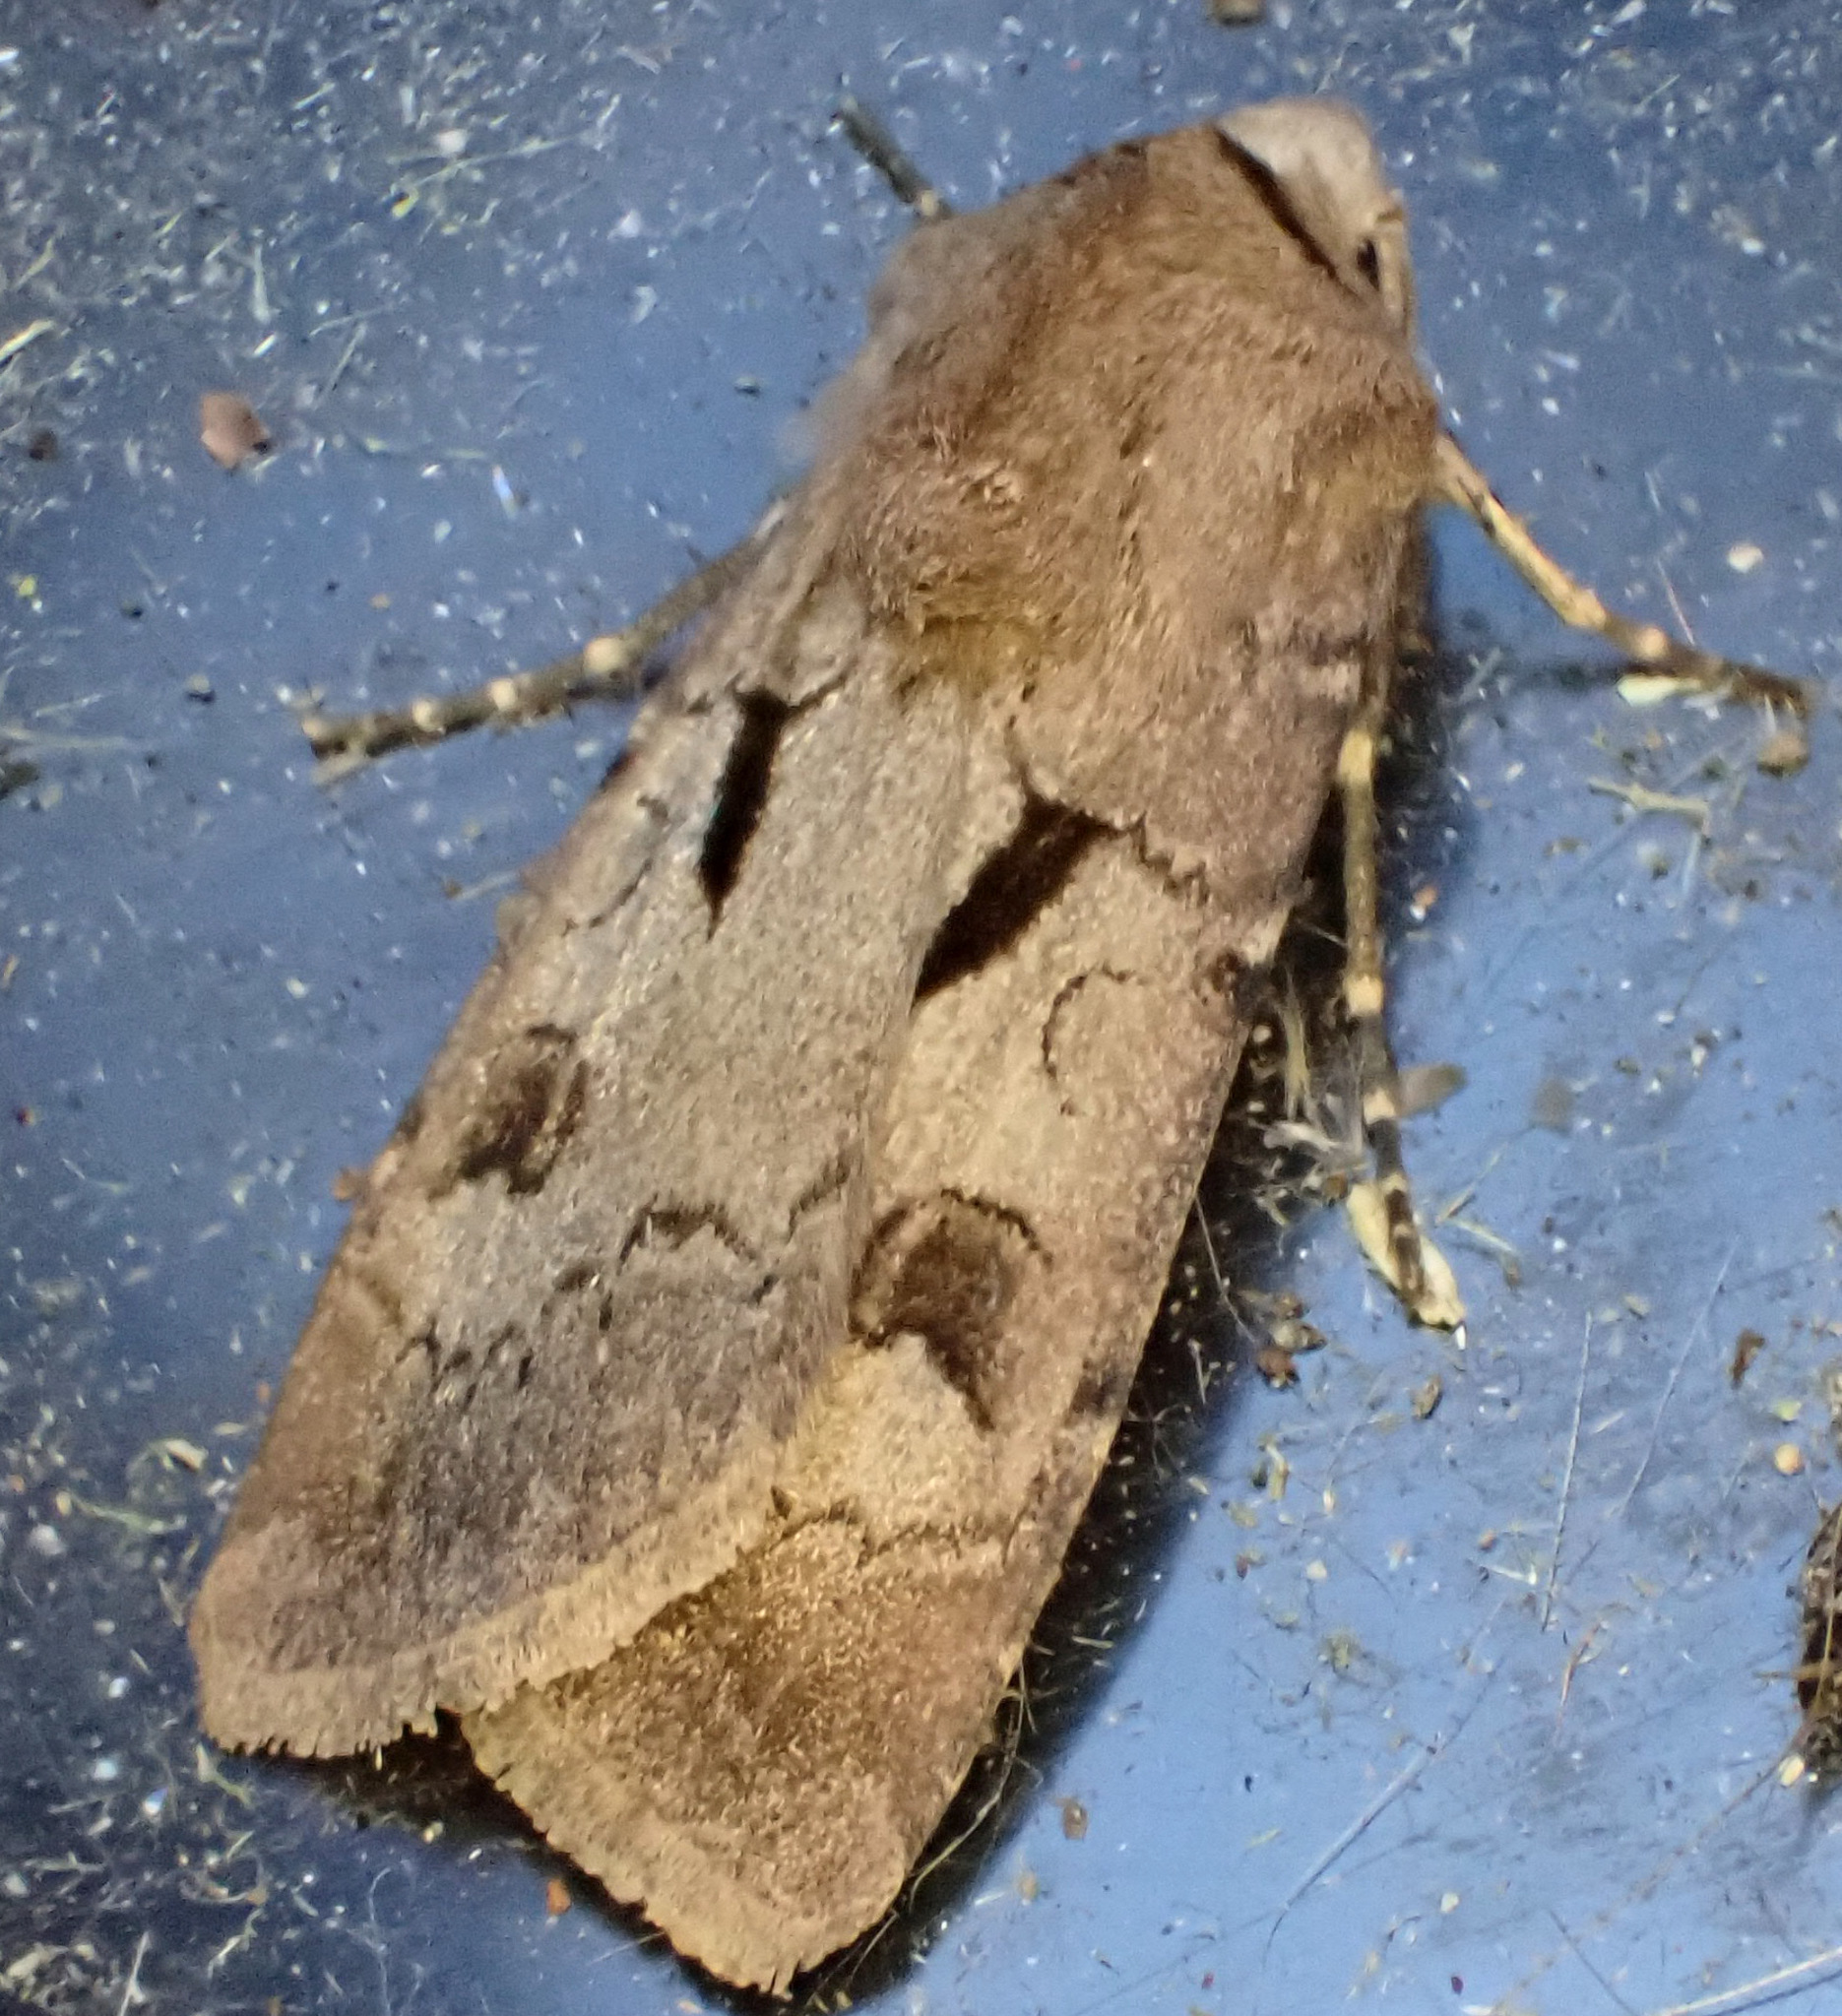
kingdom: Animalia
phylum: Arthropoda
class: Insecta
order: Lepidoptera
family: Noctuidae
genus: Agrotis
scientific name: Agrotis exclamationis
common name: Heart and dart
